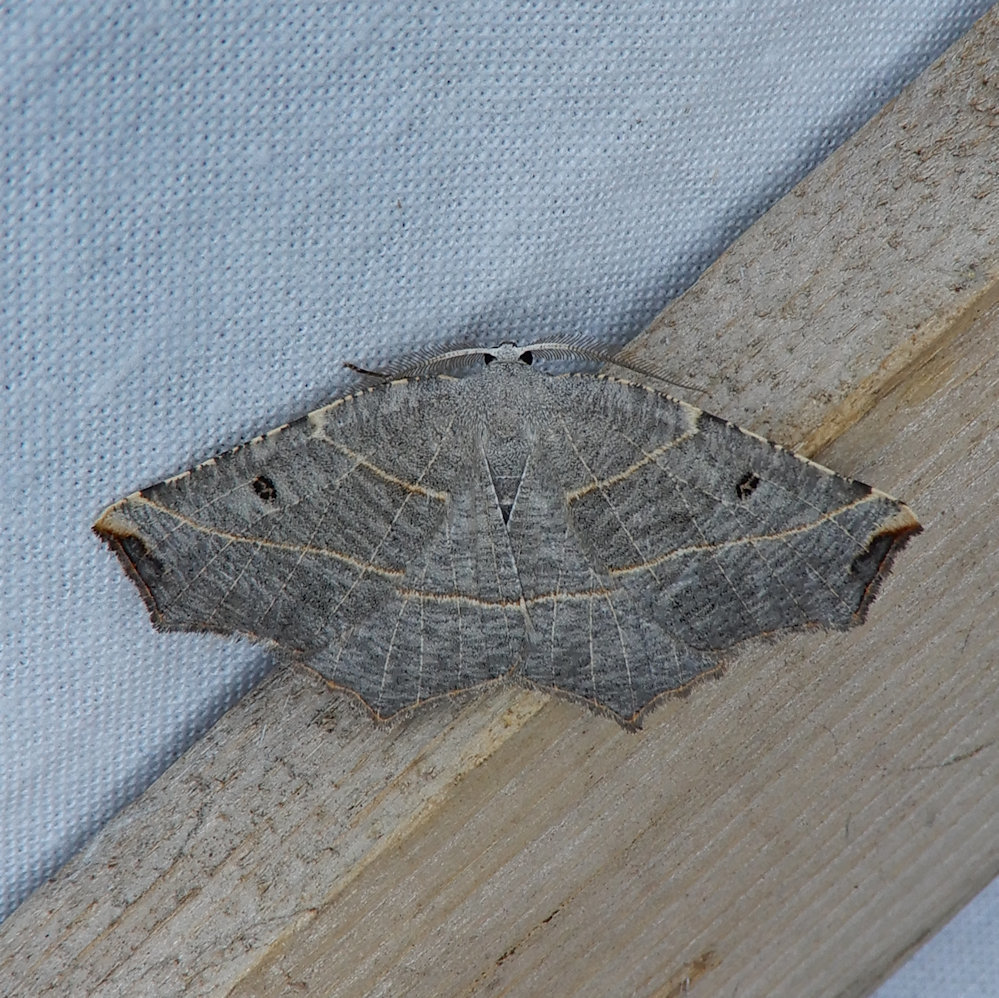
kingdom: Animalia
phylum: Arthropoda
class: Insecta
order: Lepidoptera
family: Geometridae
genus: Metanema
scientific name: Metanema inatomaria
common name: Pale metanema
